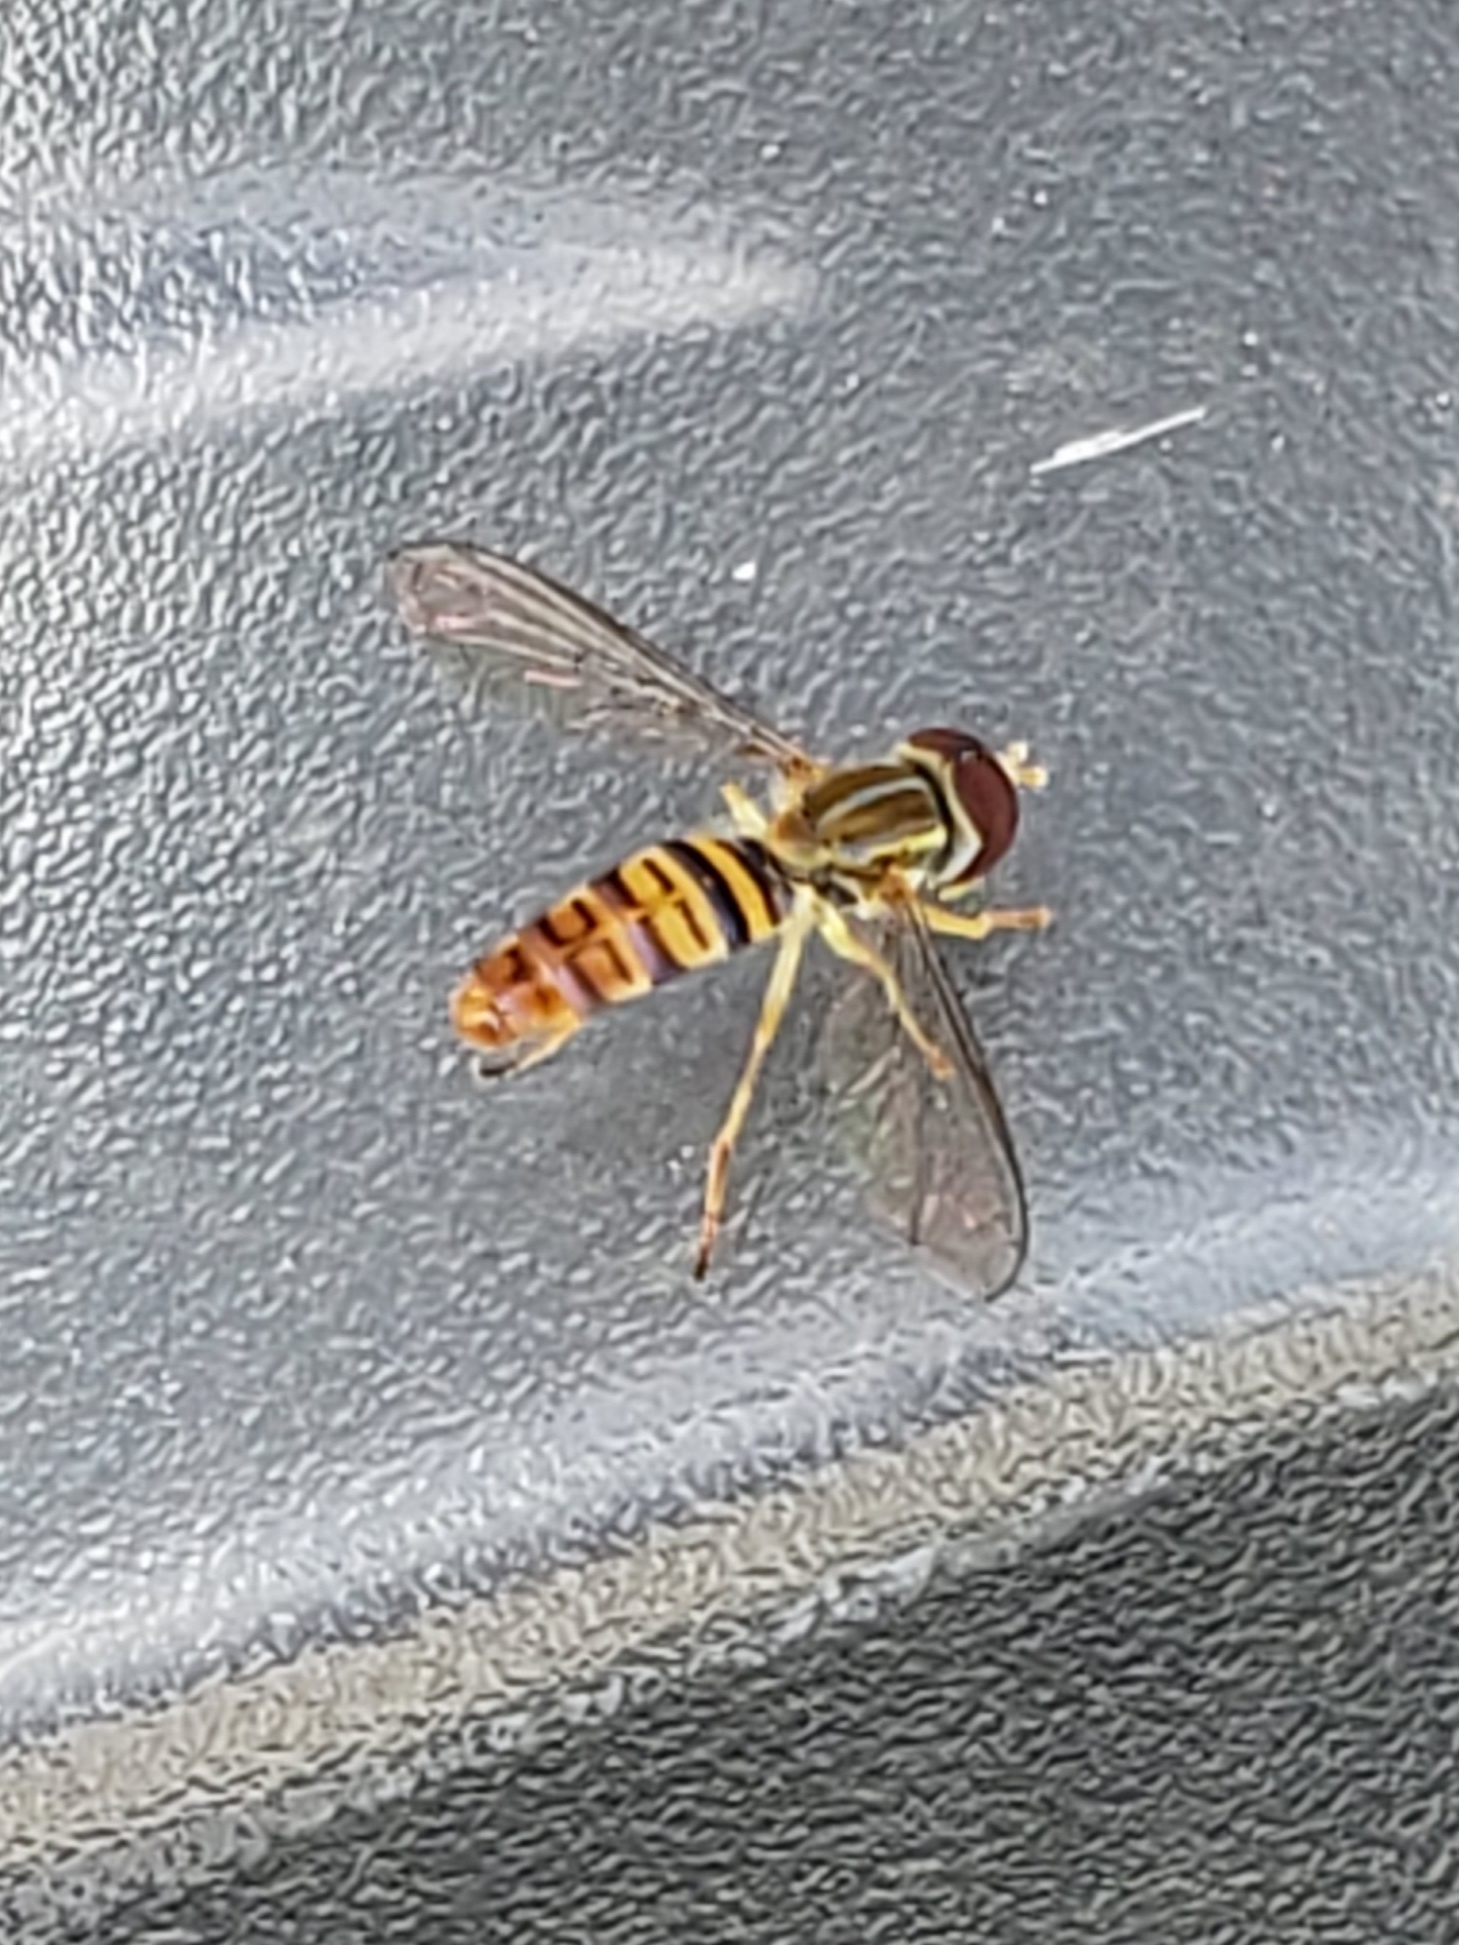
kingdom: Animalia
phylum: Arthropoda
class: Insecta
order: Diptera
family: Syrphidae
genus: Toxomerus
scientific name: Toxomerus politus
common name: Maize calligrapher
